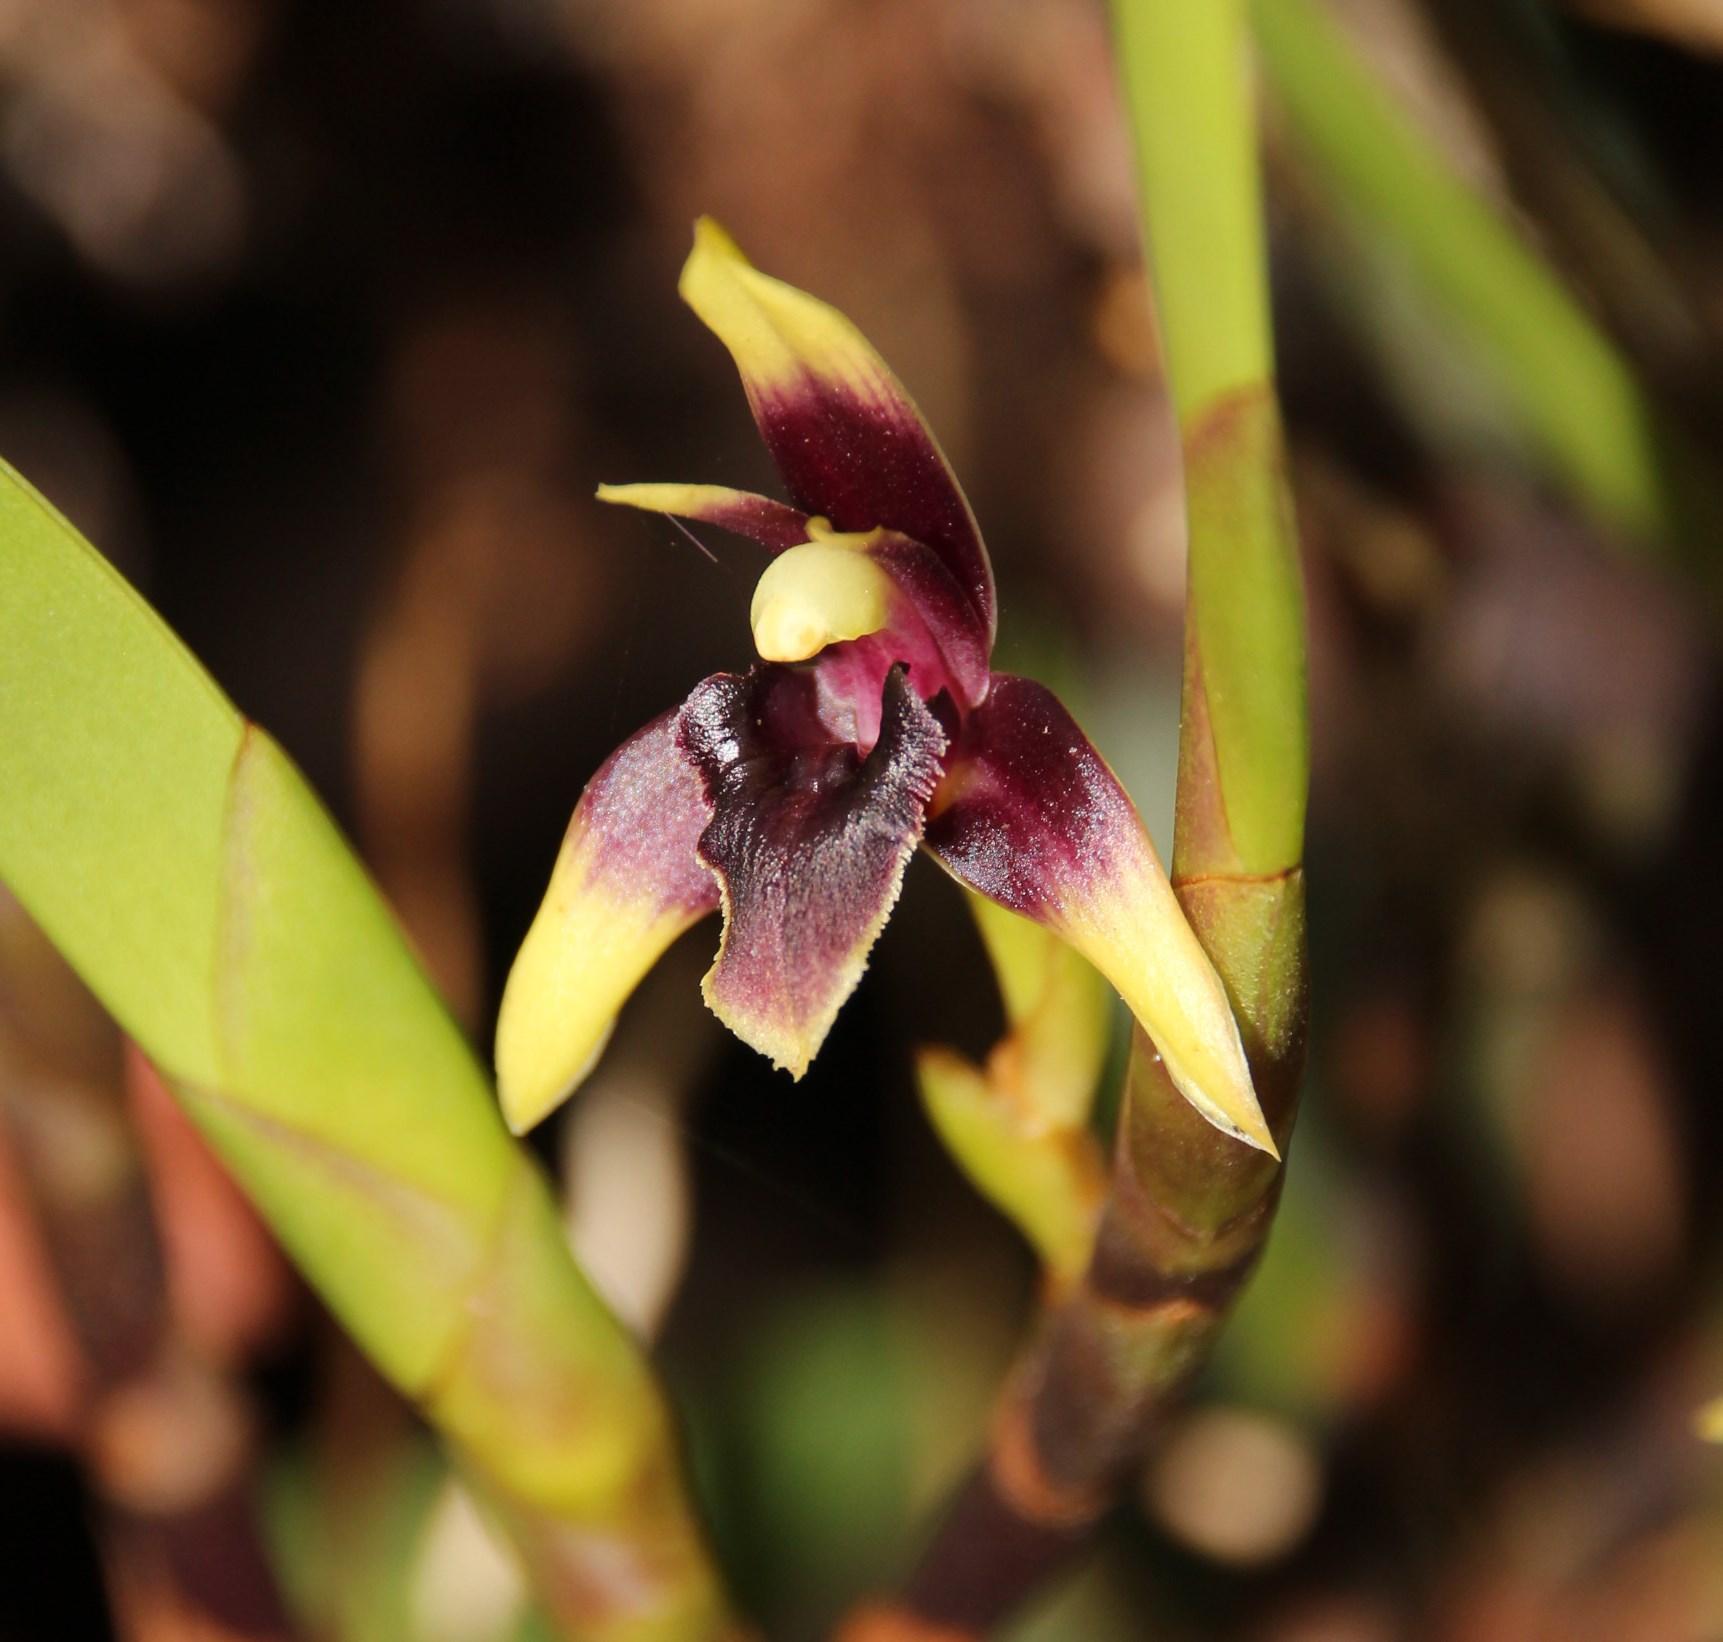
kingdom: Plantae
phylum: Tracheophyta
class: Liliopsida
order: Asparagales
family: Orchidaceae
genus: Maxillaria
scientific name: Maxillaria alpestris
